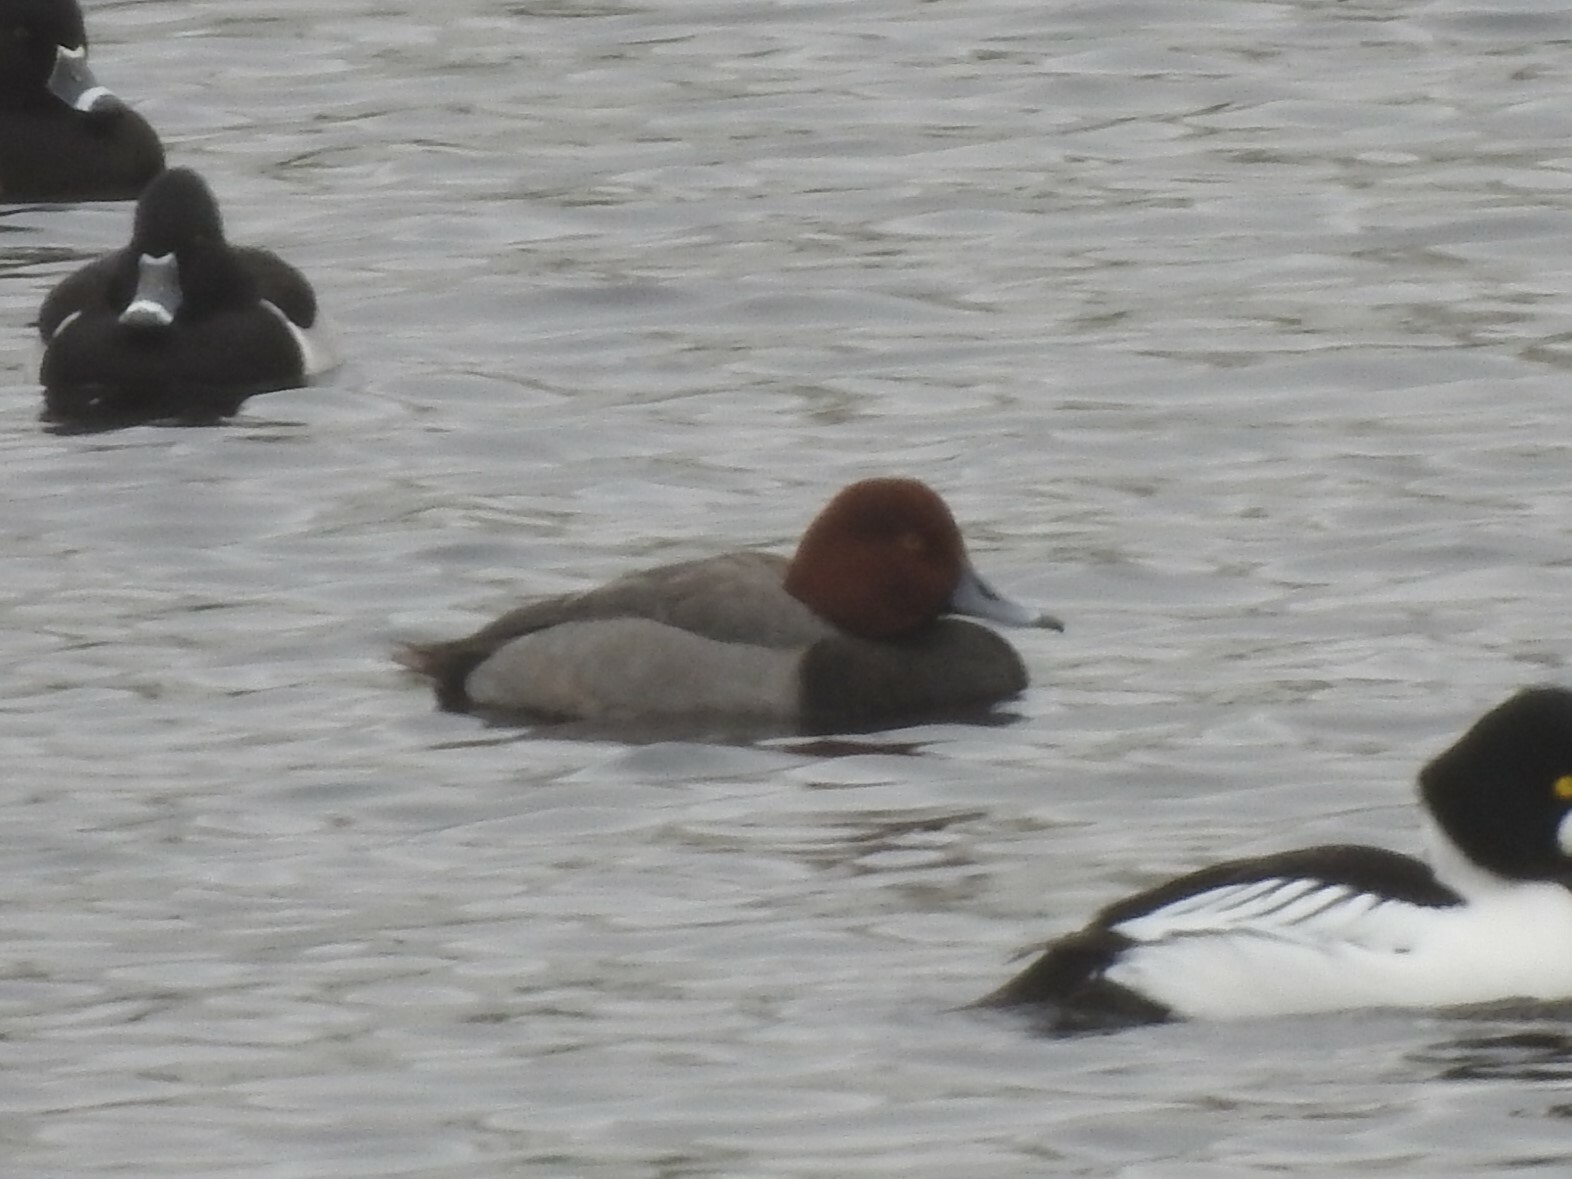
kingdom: Animalia
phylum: Chordata
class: Aves
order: Anseriformes
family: Anatidae
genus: Aythya
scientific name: Aythya americana
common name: Redhead
